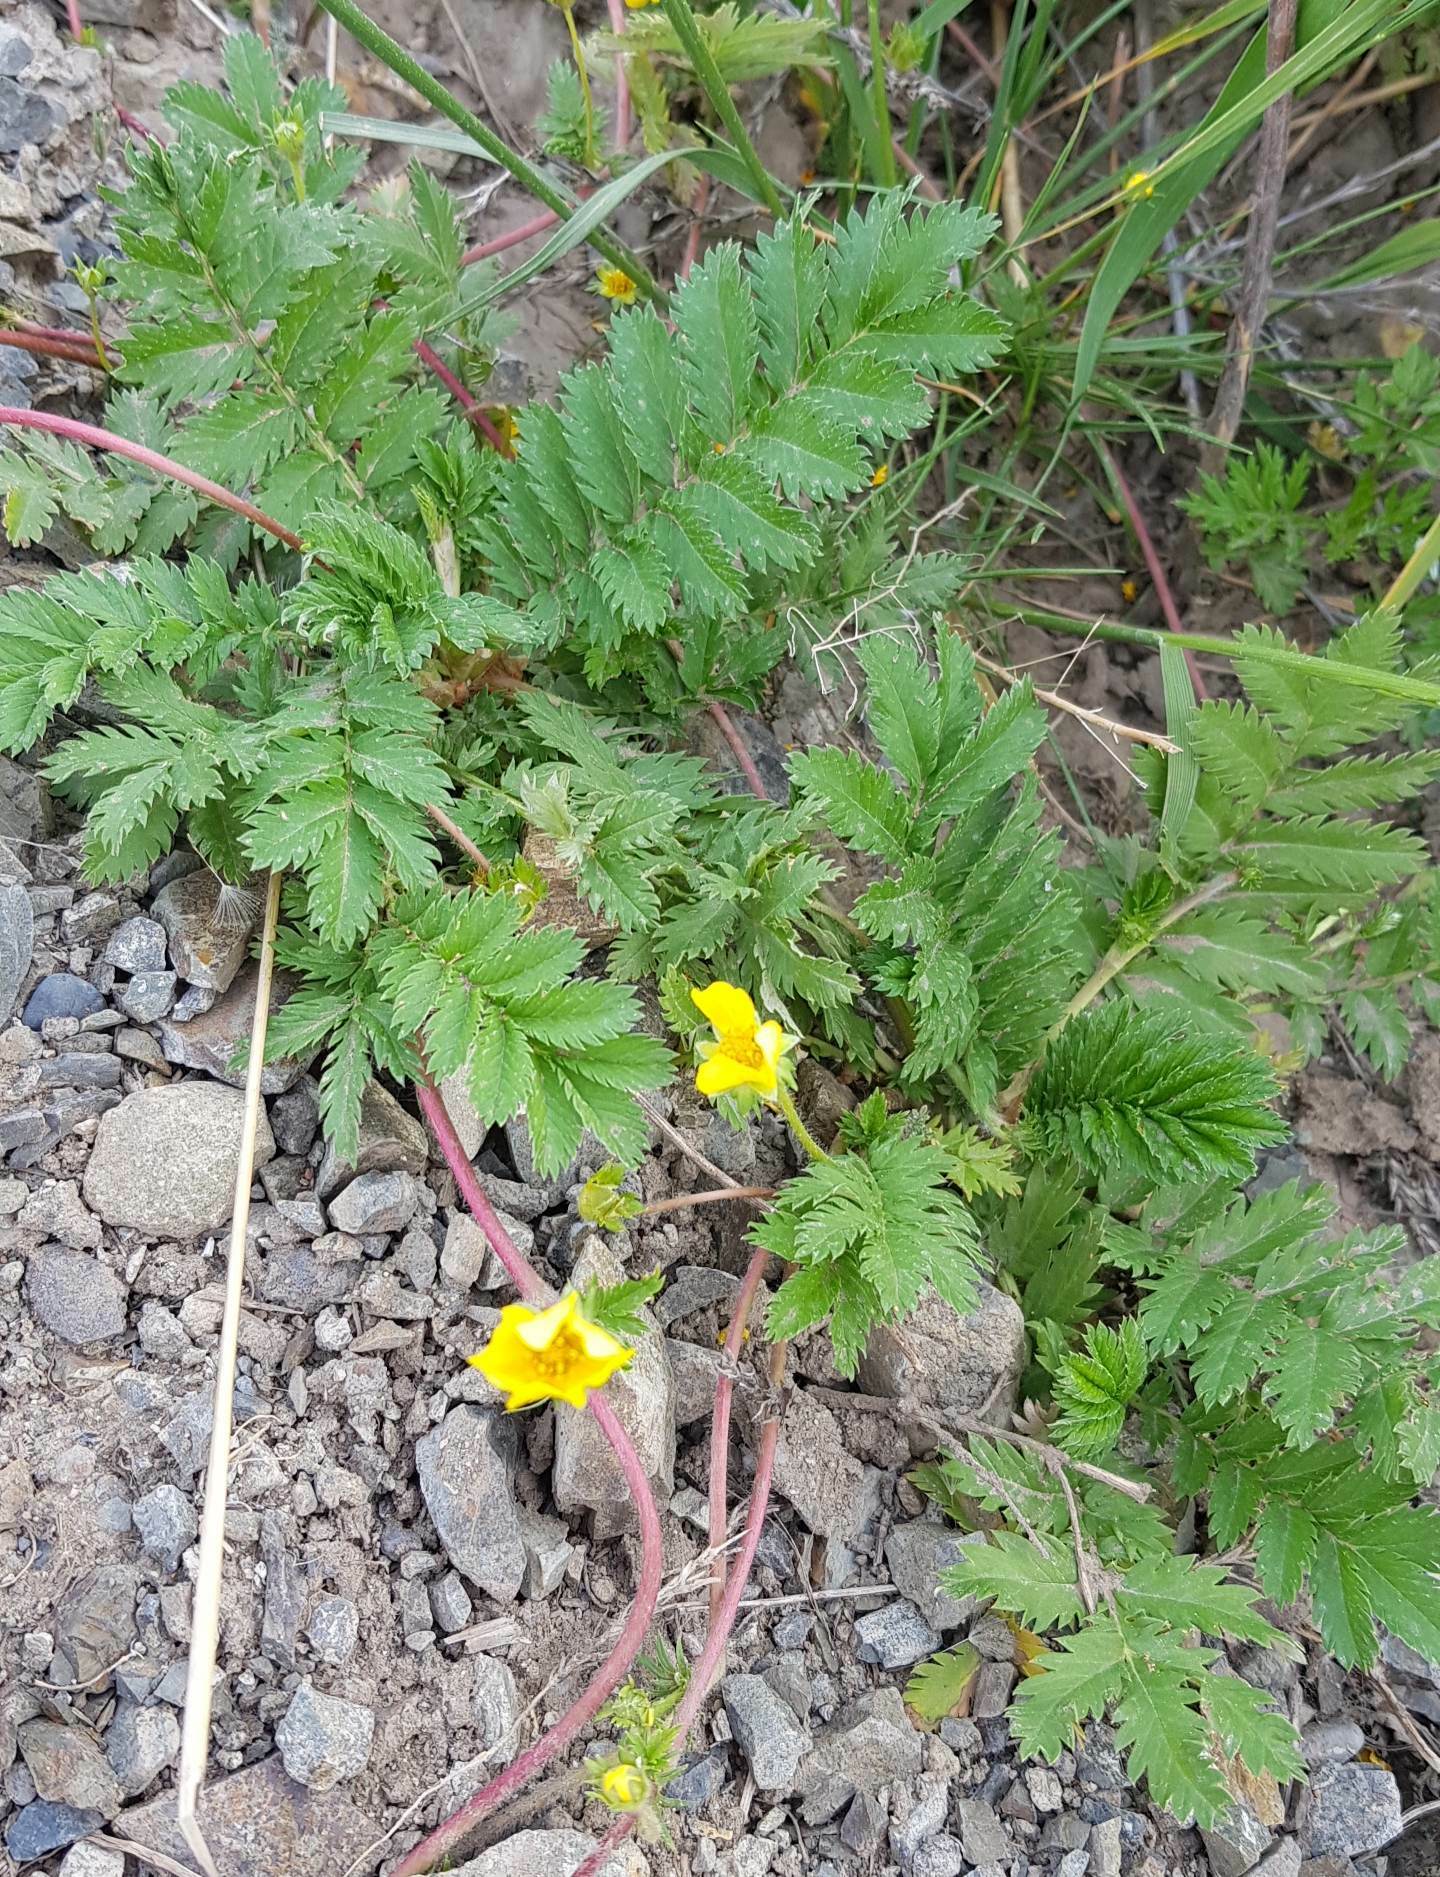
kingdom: Plantae
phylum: Tracheophyta
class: Magnoliopsida
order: Rosales
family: Rosaceae
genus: Argentina
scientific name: Argentina anserina
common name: Common silverweed
